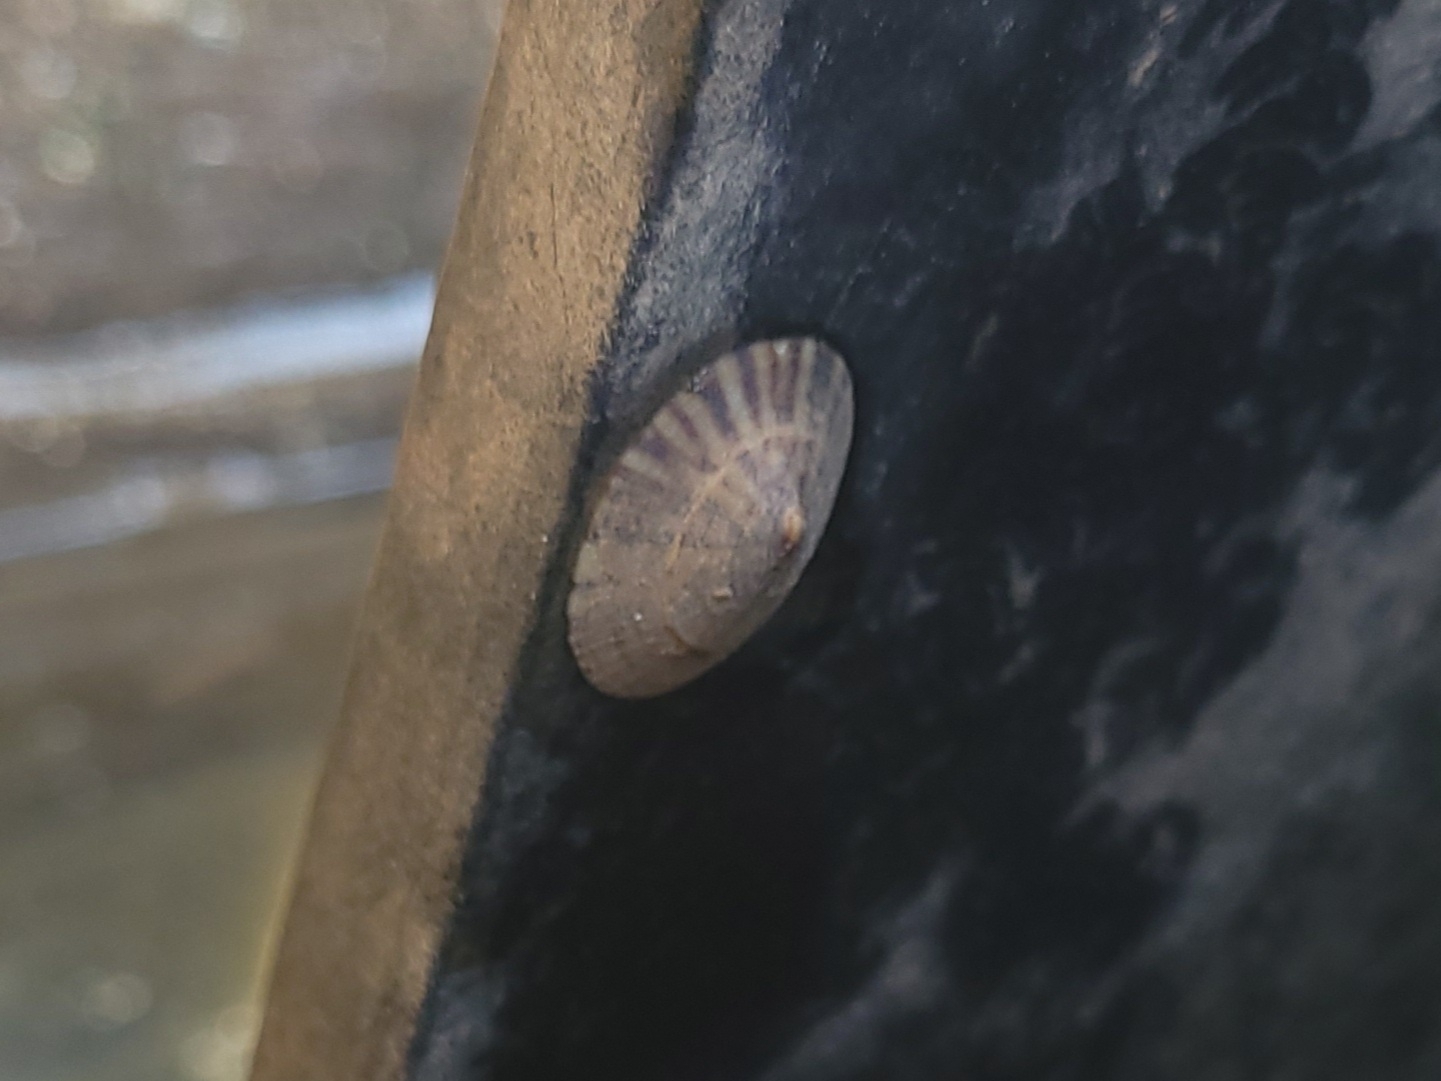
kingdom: Animalia
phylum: Mollusca
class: Gastropoda
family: Lottiidae
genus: Testudinalia
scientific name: Testudinalia testudinalis
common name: Common tortoiseshell limpet
